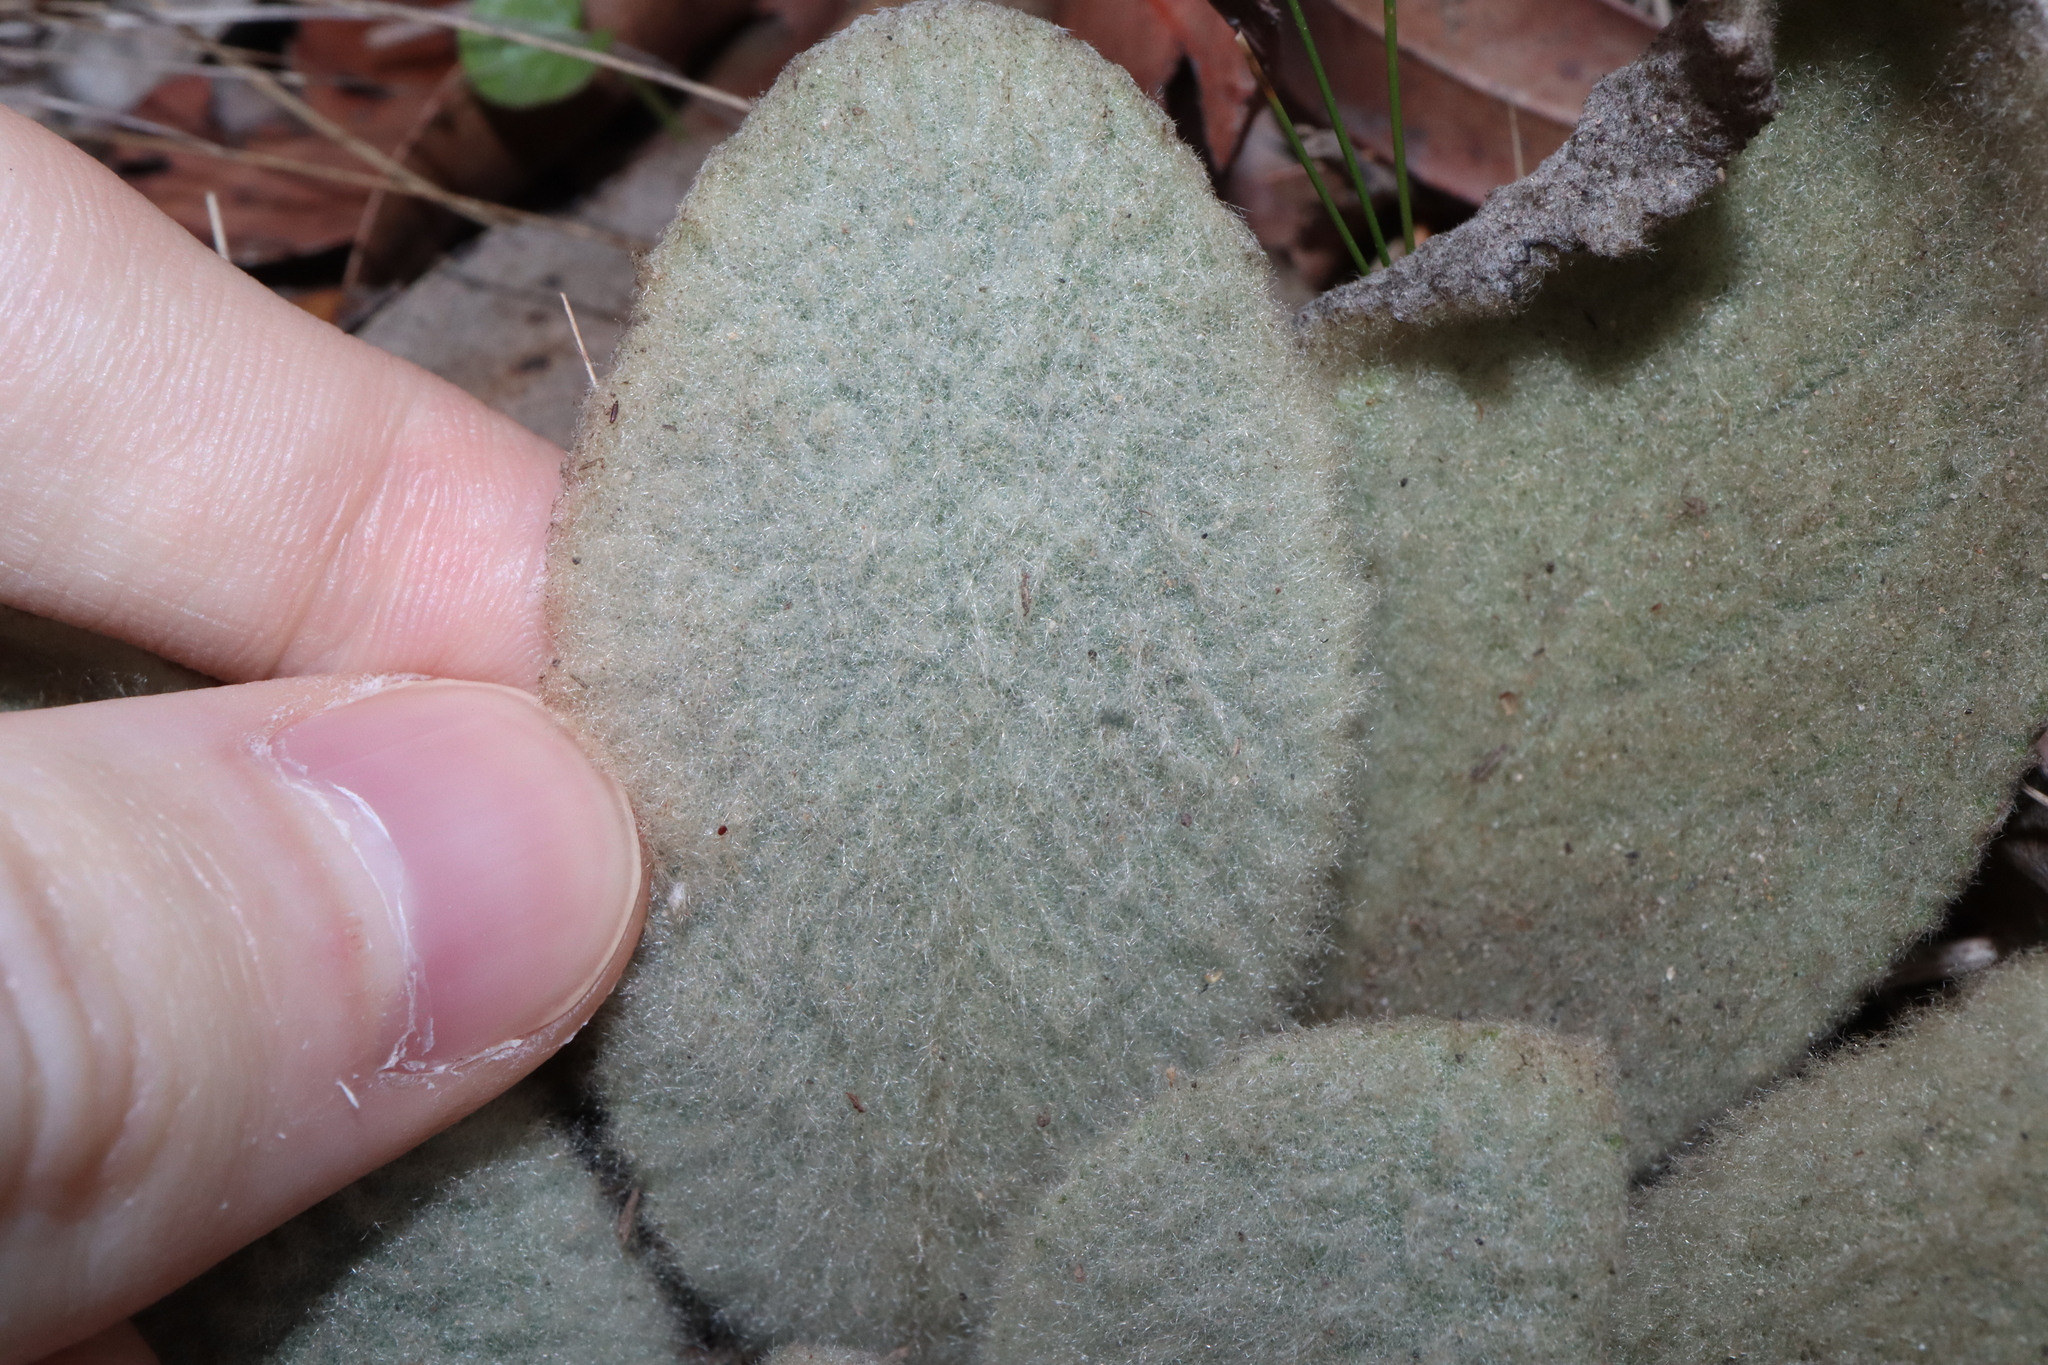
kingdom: Plantae
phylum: Tracheophyta
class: Magnoliopsida
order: Lamiales
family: Scrophulariaceae
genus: Verbascum
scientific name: Verbascum thapsus
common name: Common mullein
